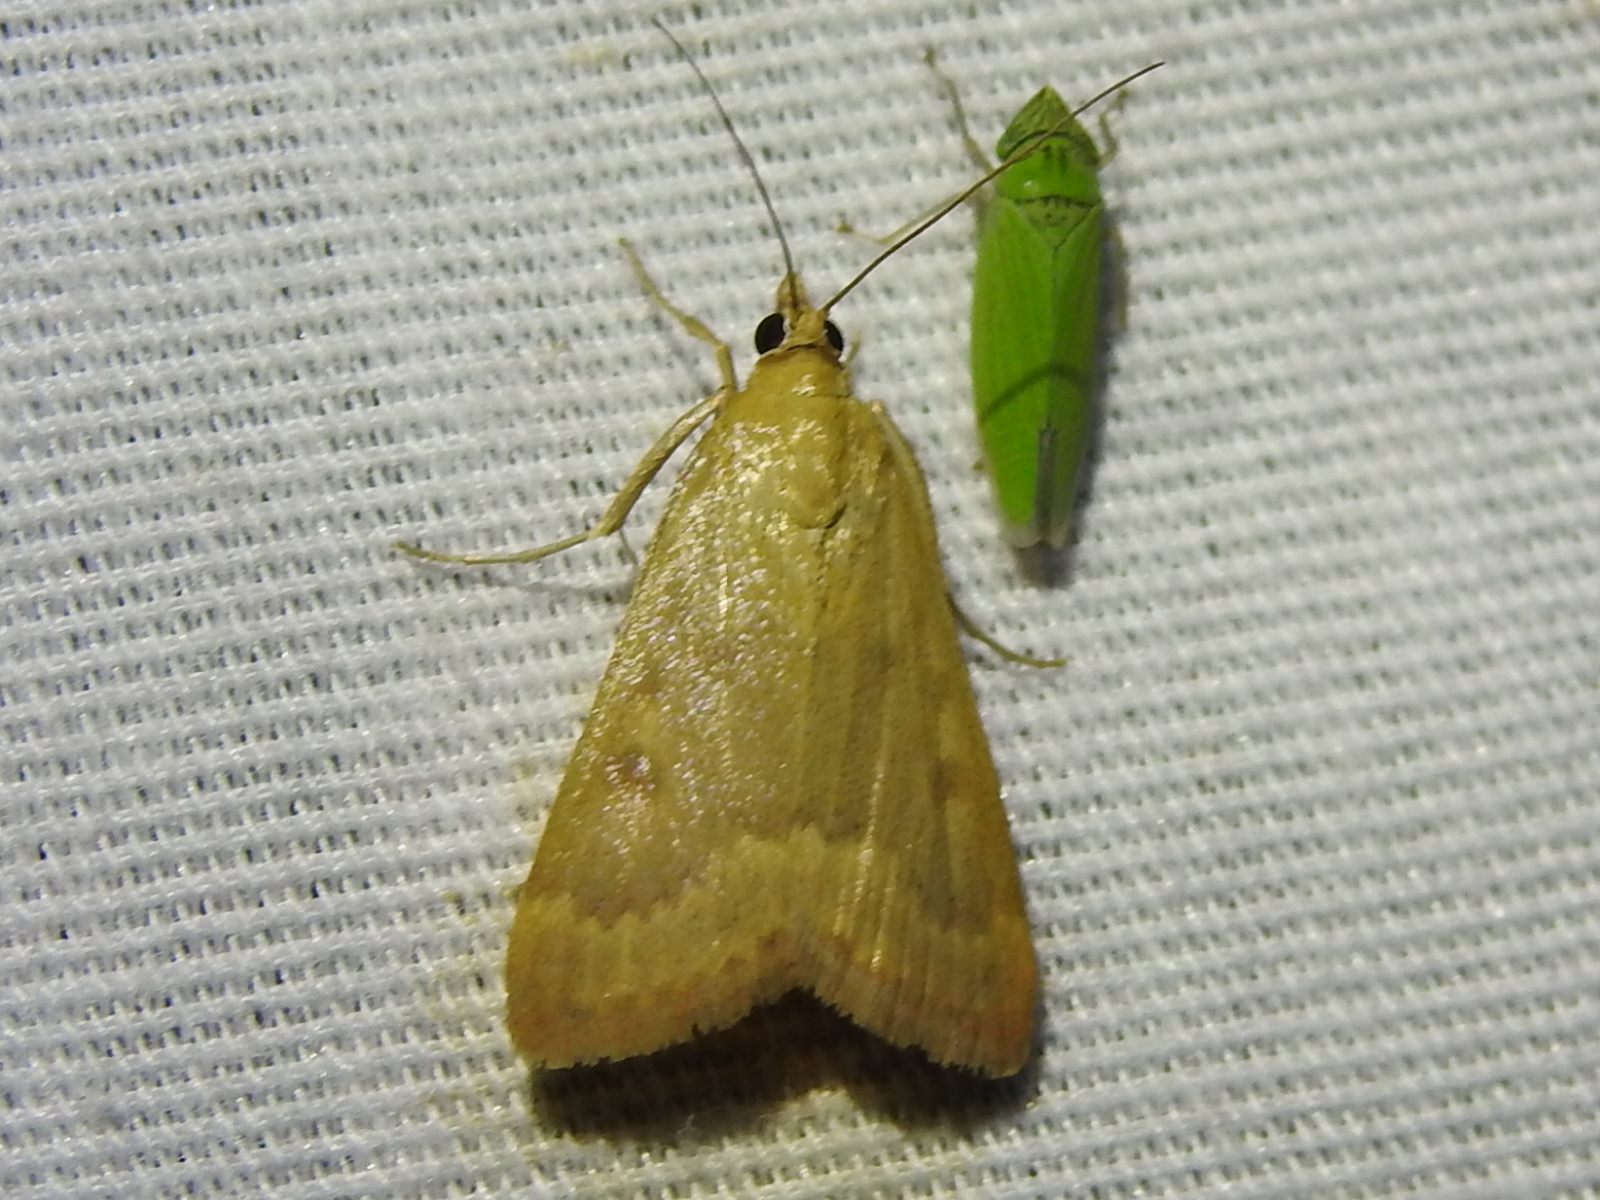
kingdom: Animalia
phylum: Arthropoda
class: Insecta
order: Lepidoptera
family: Crambidae
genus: Achyra
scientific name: Achyra rantalis
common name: Garden webworm
